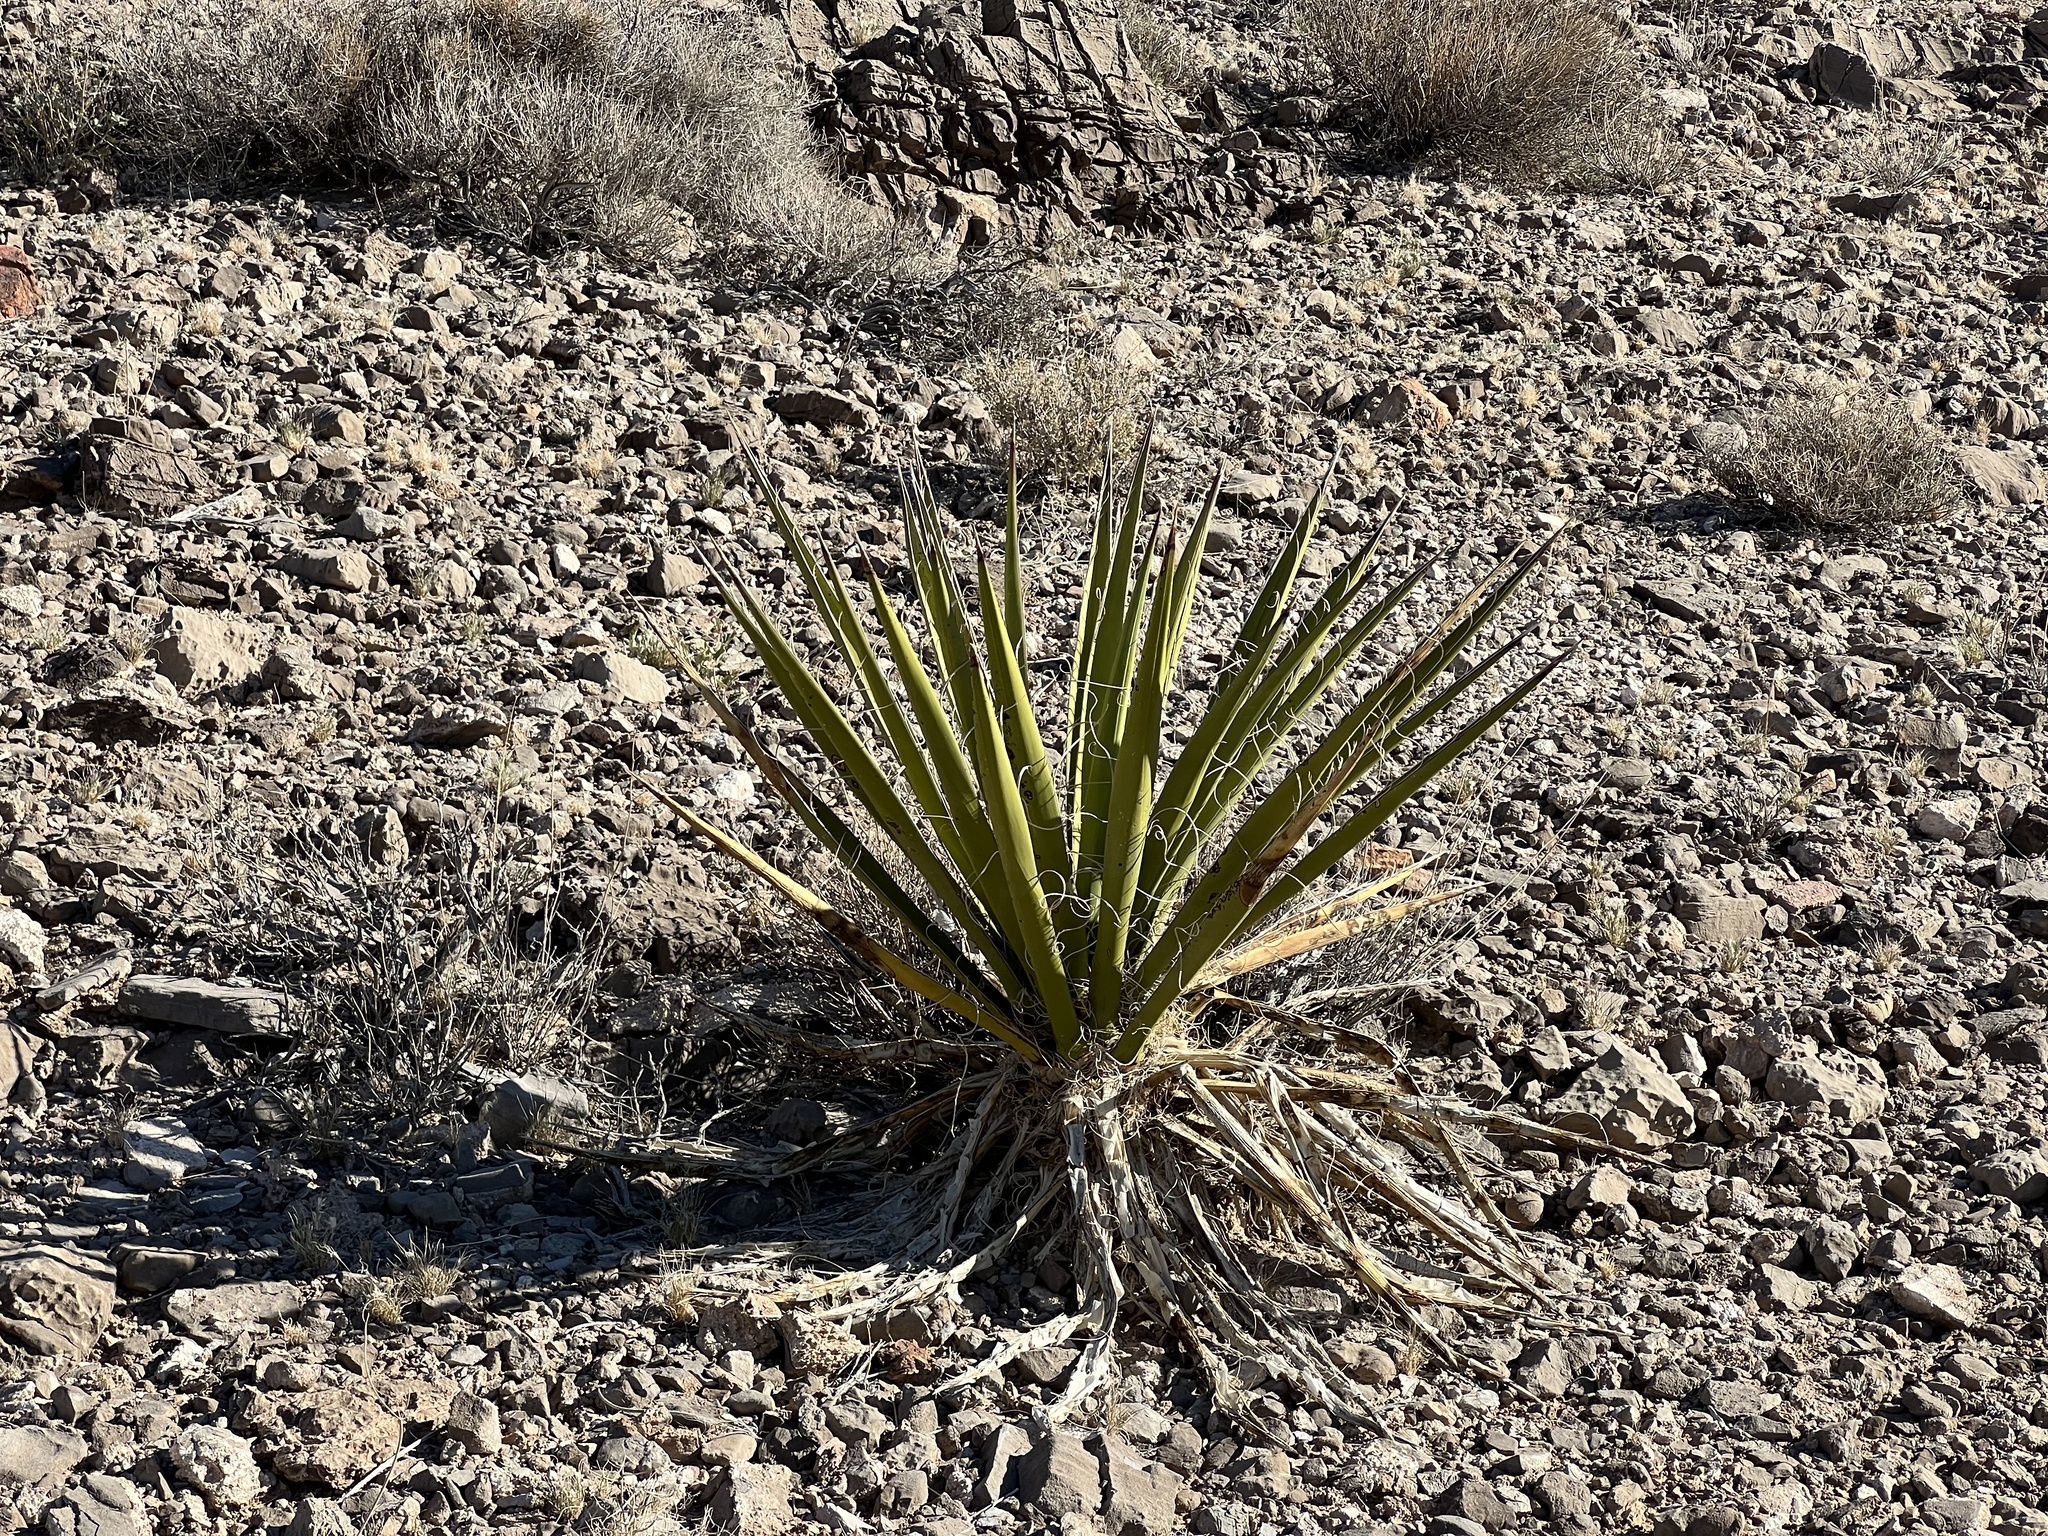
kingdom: Plantae
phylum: Tracheophyta
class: Liliopsida
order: Asparagales
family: Asparagaceae
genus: Yucca
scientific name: Yucca schidigera
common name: Mojave yucca
